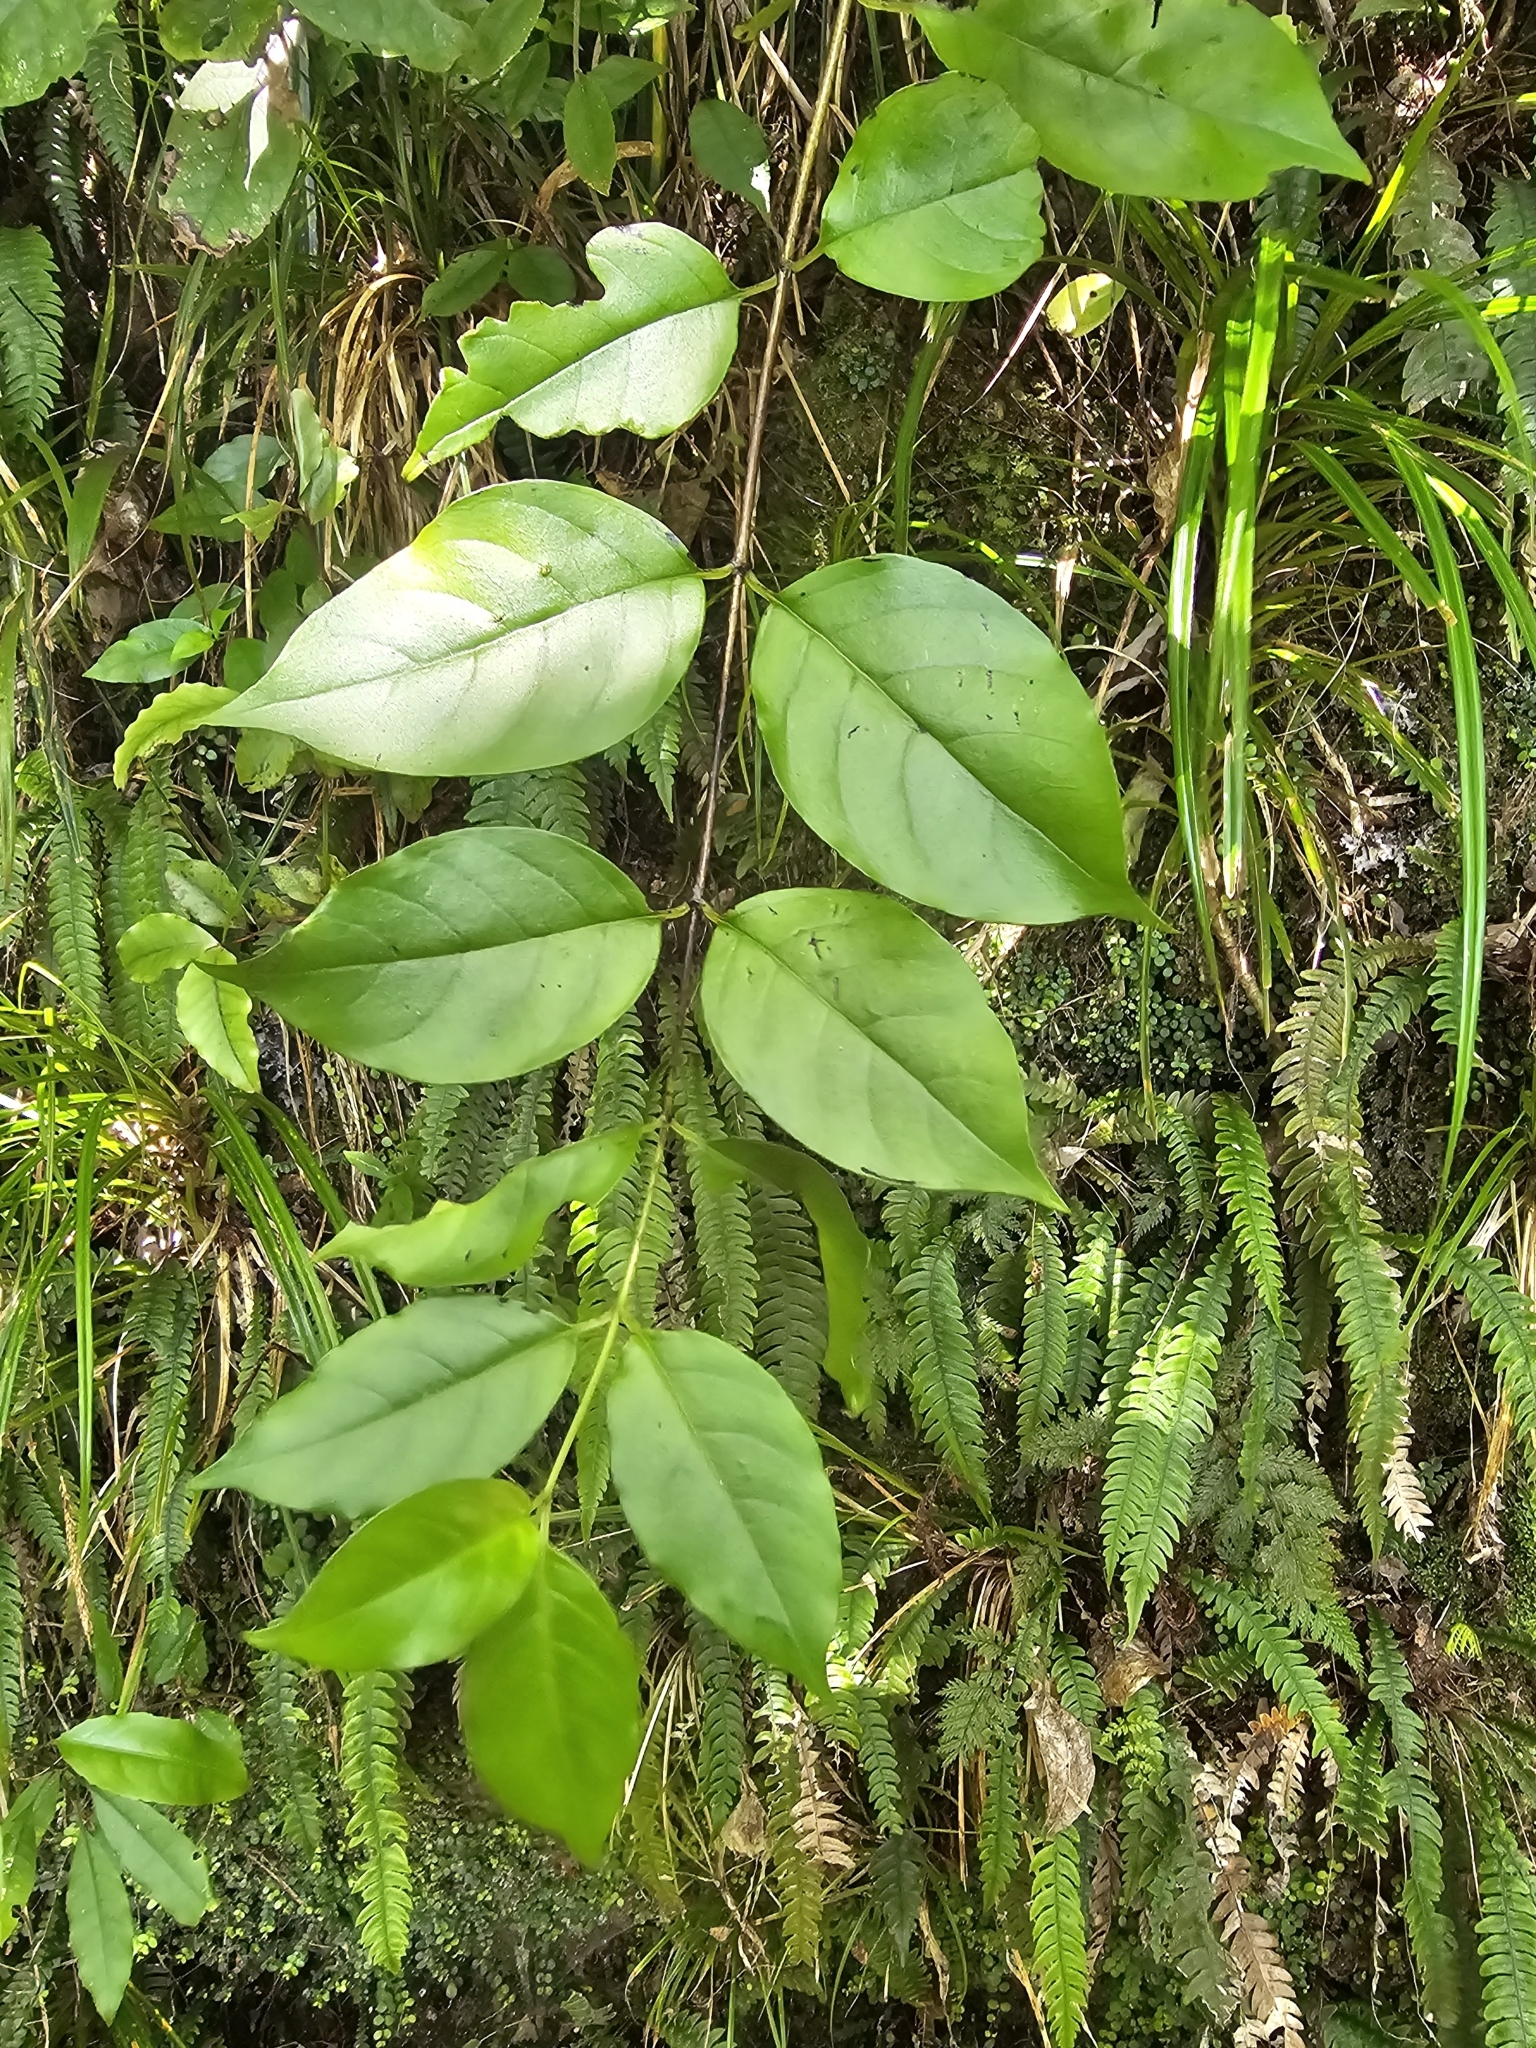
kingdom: Plantae
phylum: Tracheophyta
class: Magnoliopsida
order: Gentianales
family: Loganiaceae
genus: Geniostoma
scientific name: Geniostoma ligustrifolium
